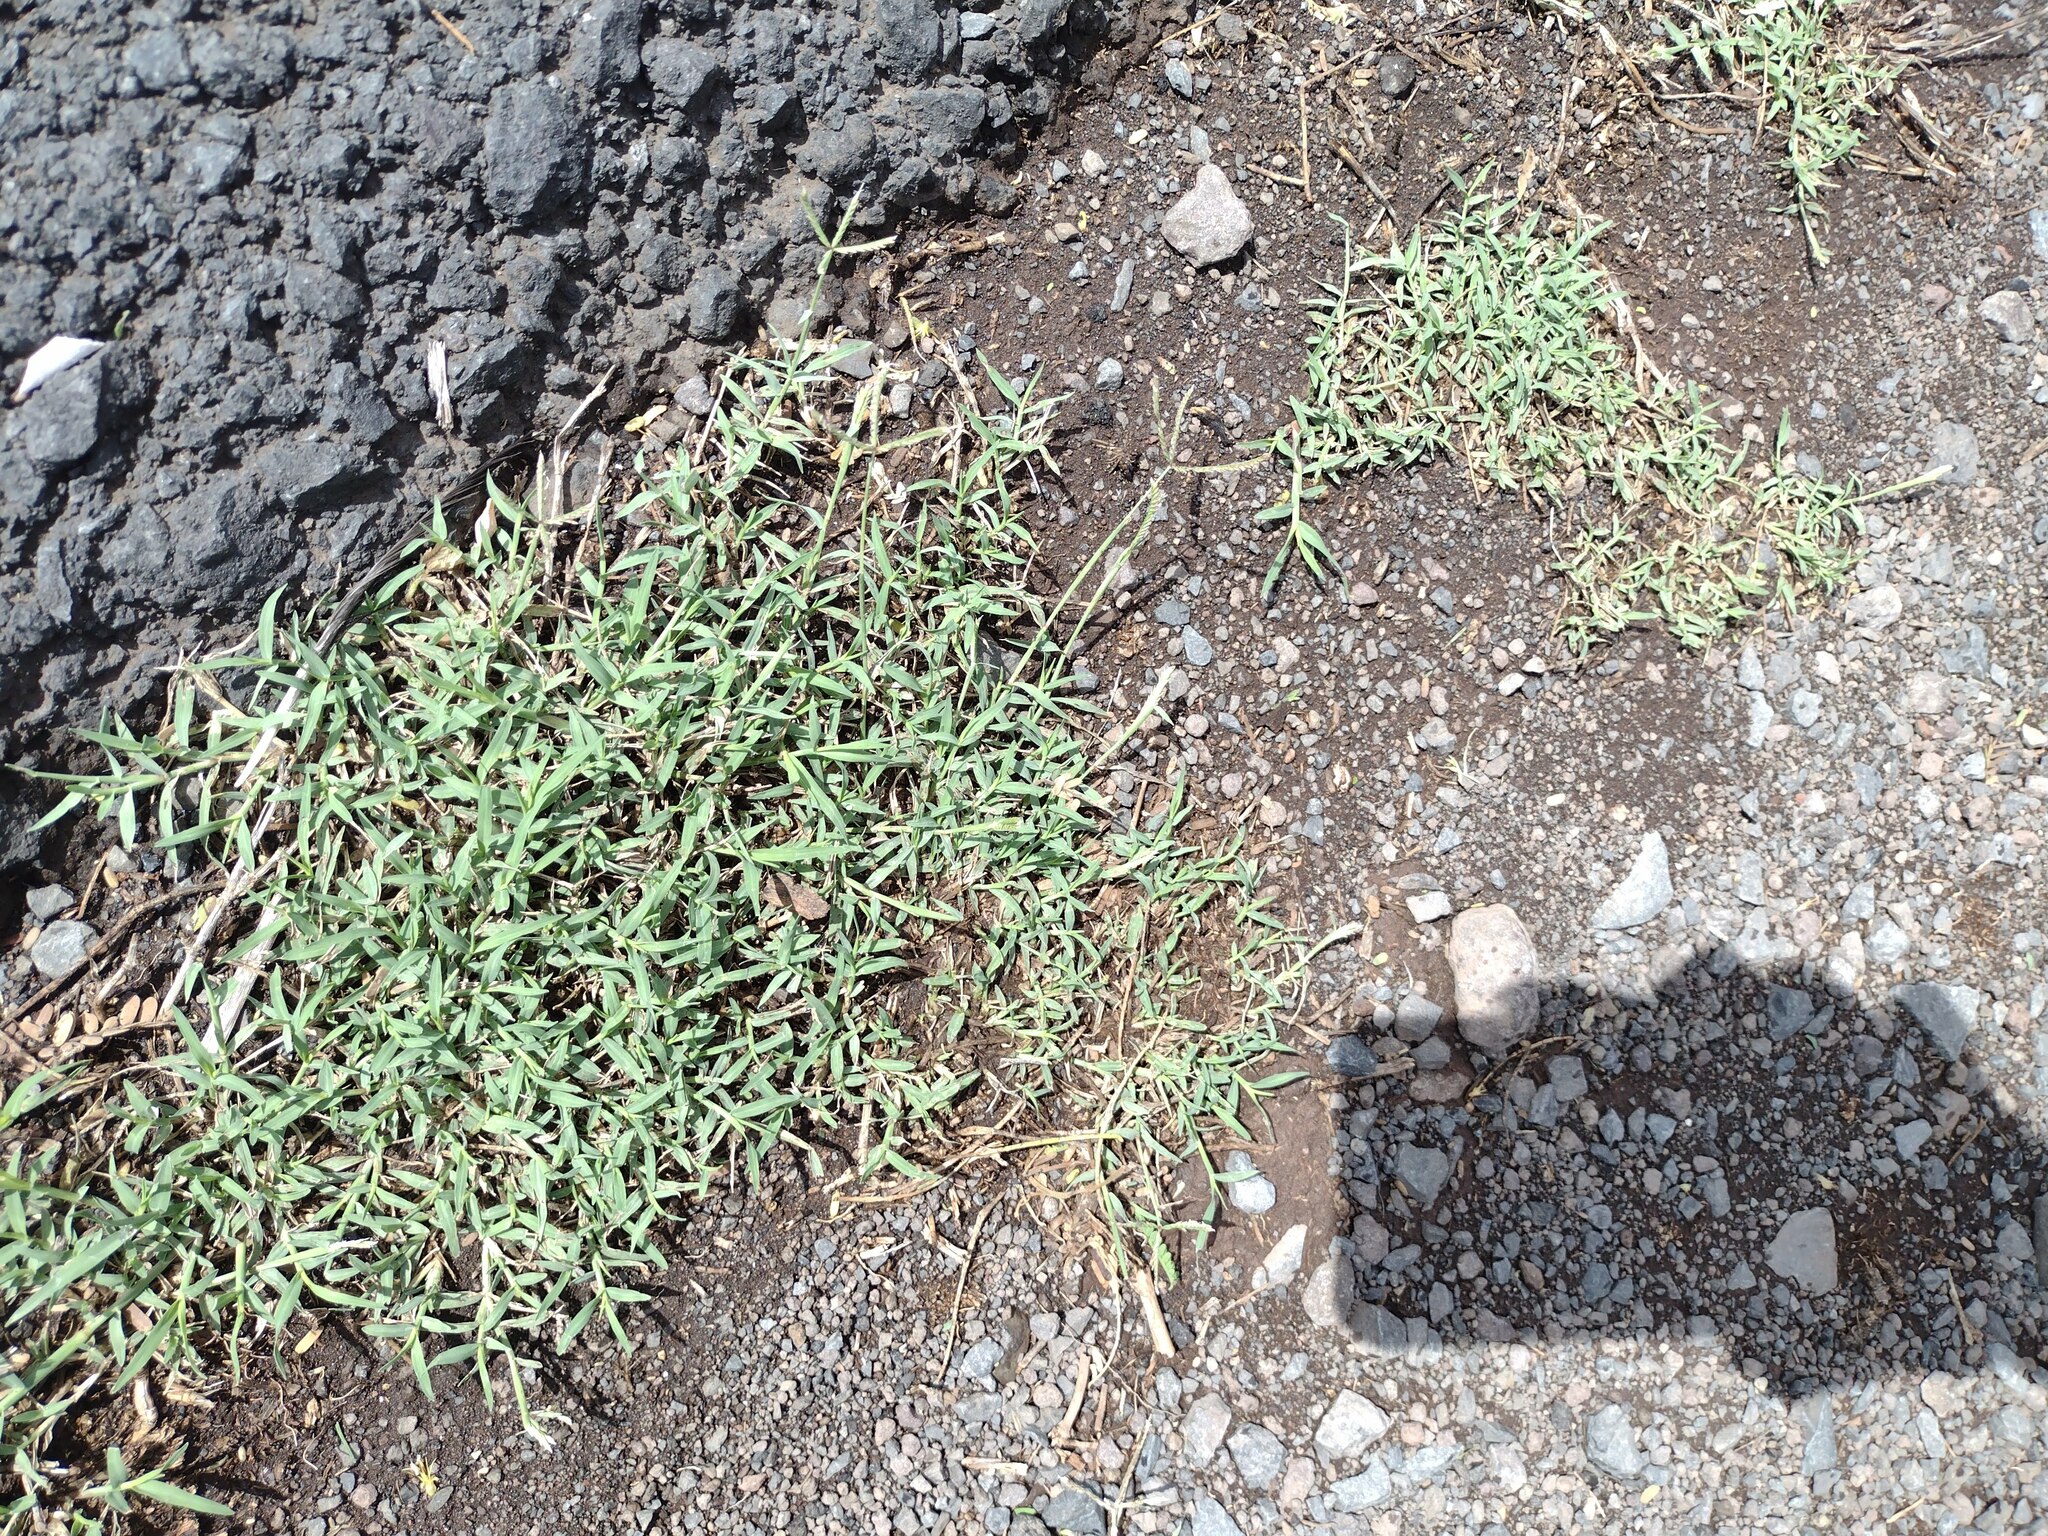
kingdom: Plantae
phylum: Tracheophyta
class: Liliopsida
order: Poales
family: Poaceae
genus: Cynodon
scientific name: Cynodon dactylon
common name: Bermuda grass
